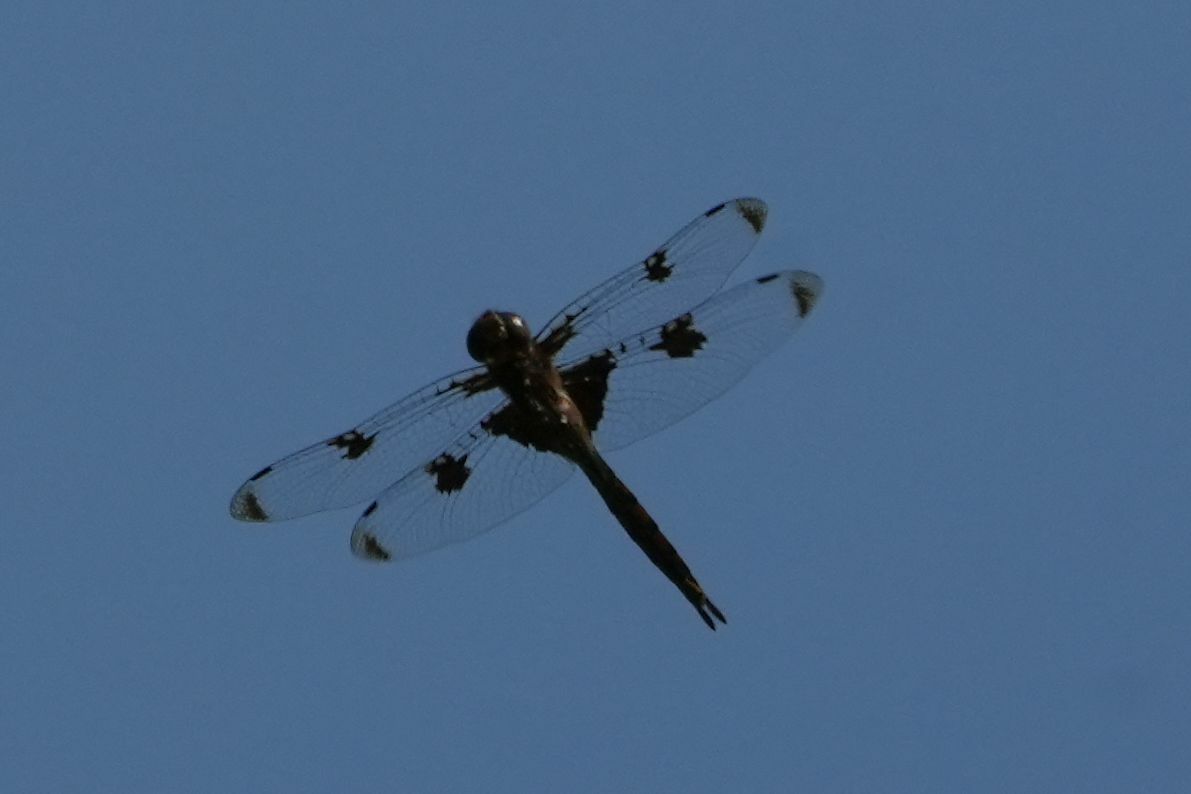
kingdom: Animalia
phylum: Arthropoda
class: Insecta
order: Odonata
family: Corduliidae
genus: Epitheca
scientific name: Epitheca princeps
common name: Prince baskettail
